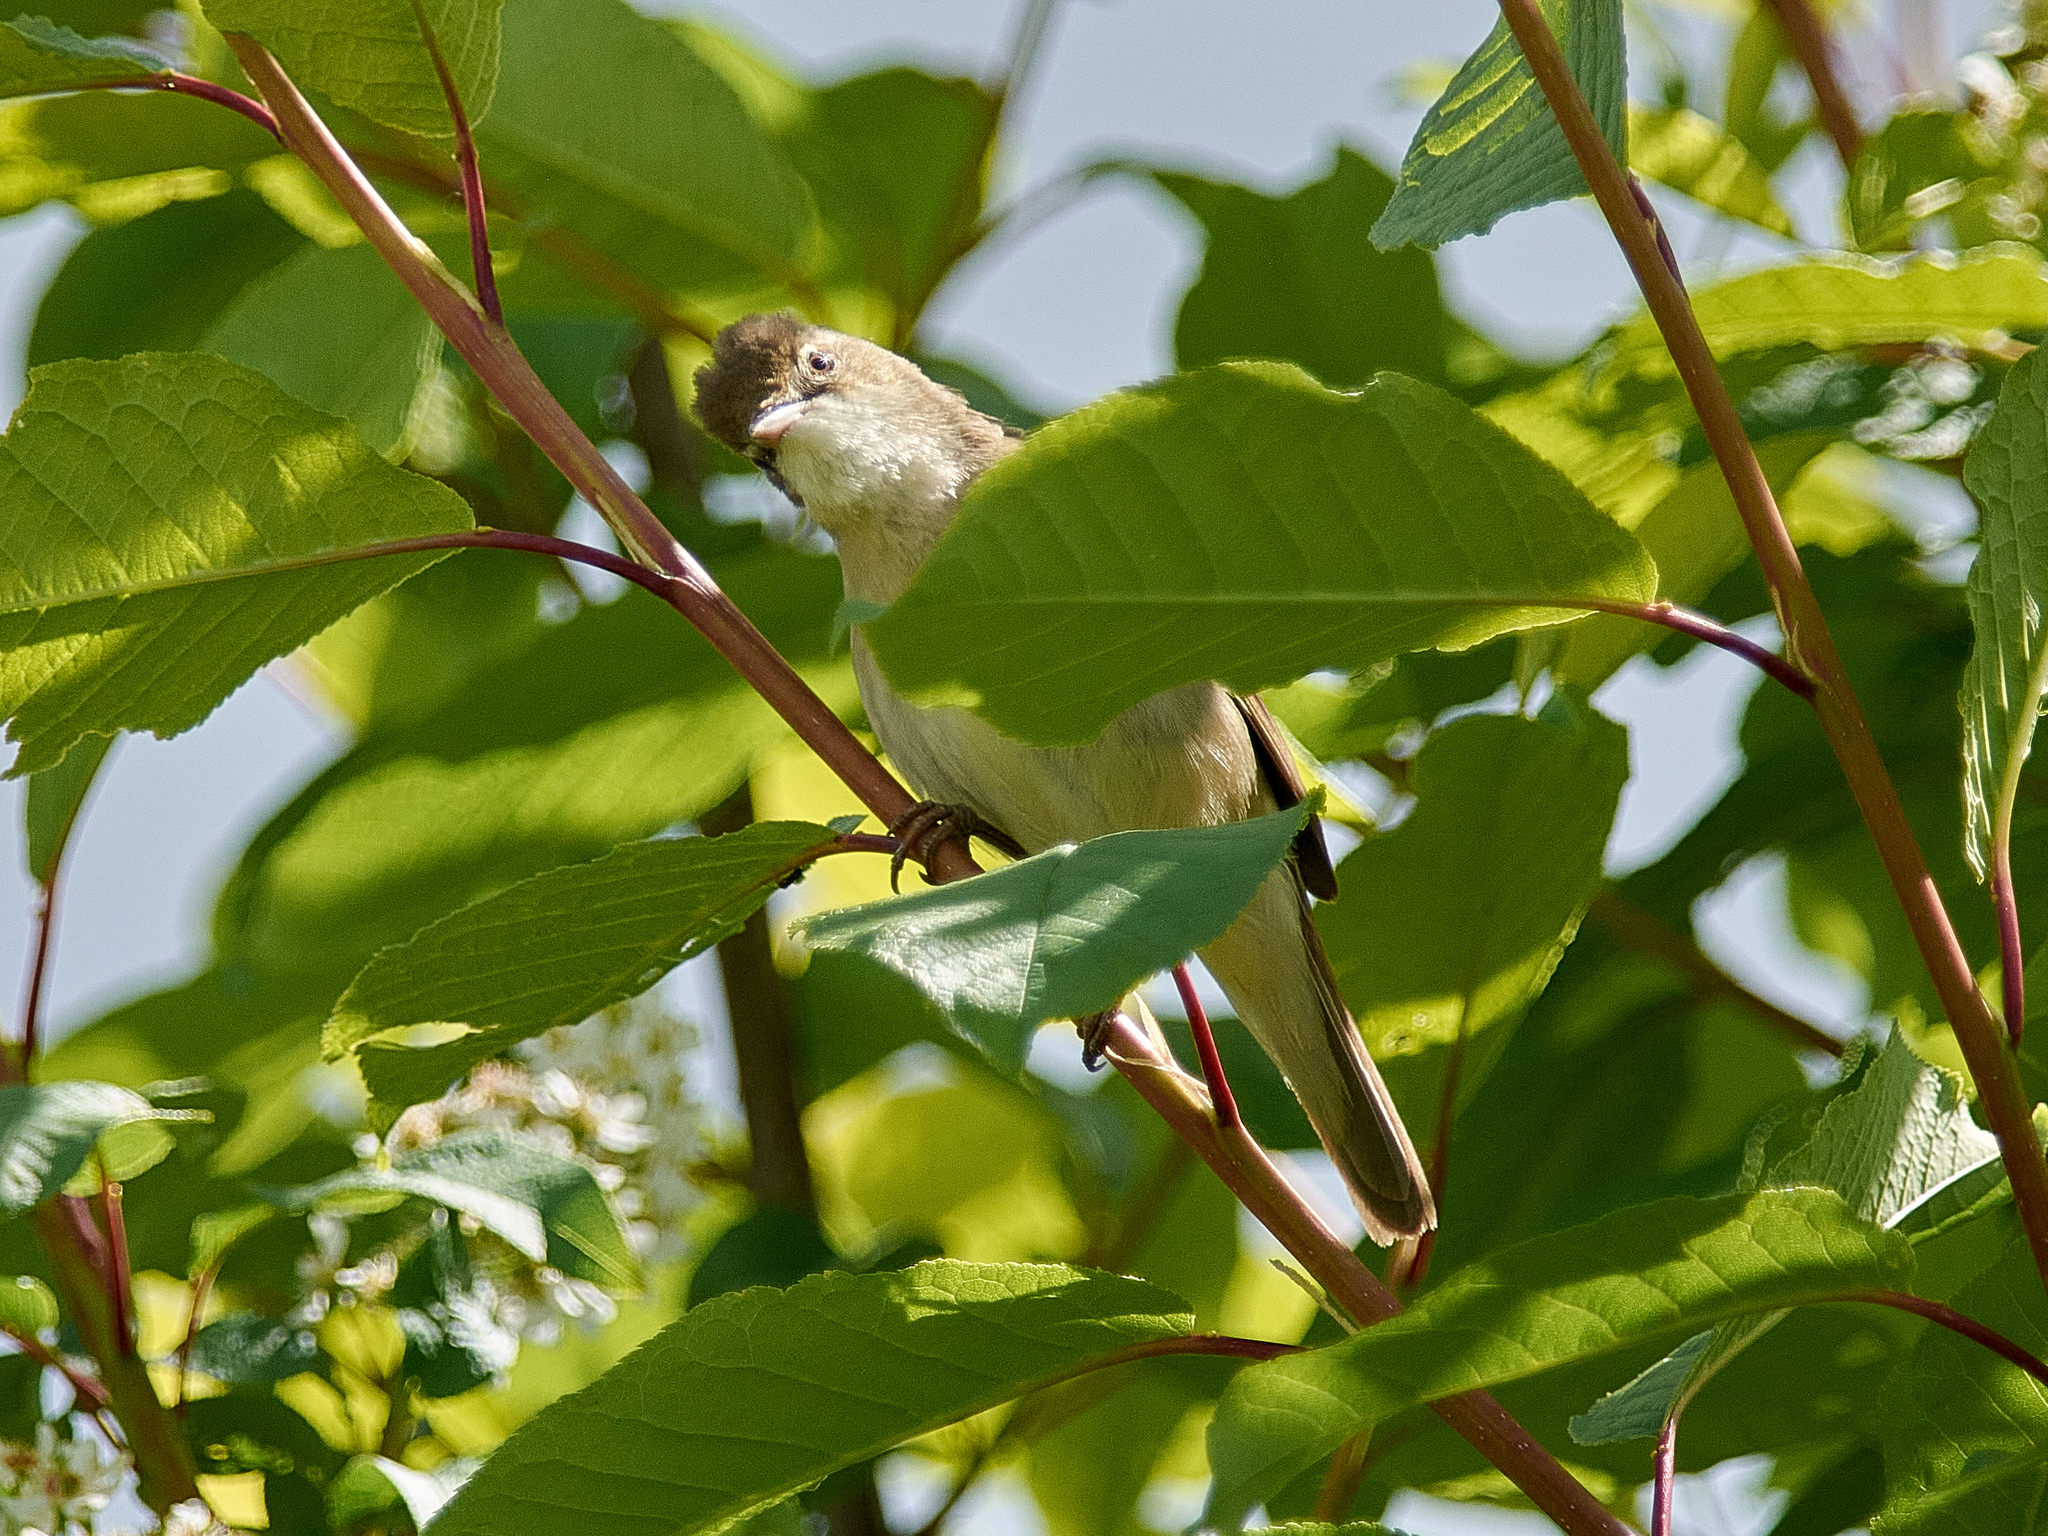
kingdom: Animalia
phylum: Chordata
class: Aves
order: Passeriformes
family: Acrocephalidae
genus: Acrocephalus
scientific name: Acrocephalus dumetorum
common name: Blyth's reed warbler
